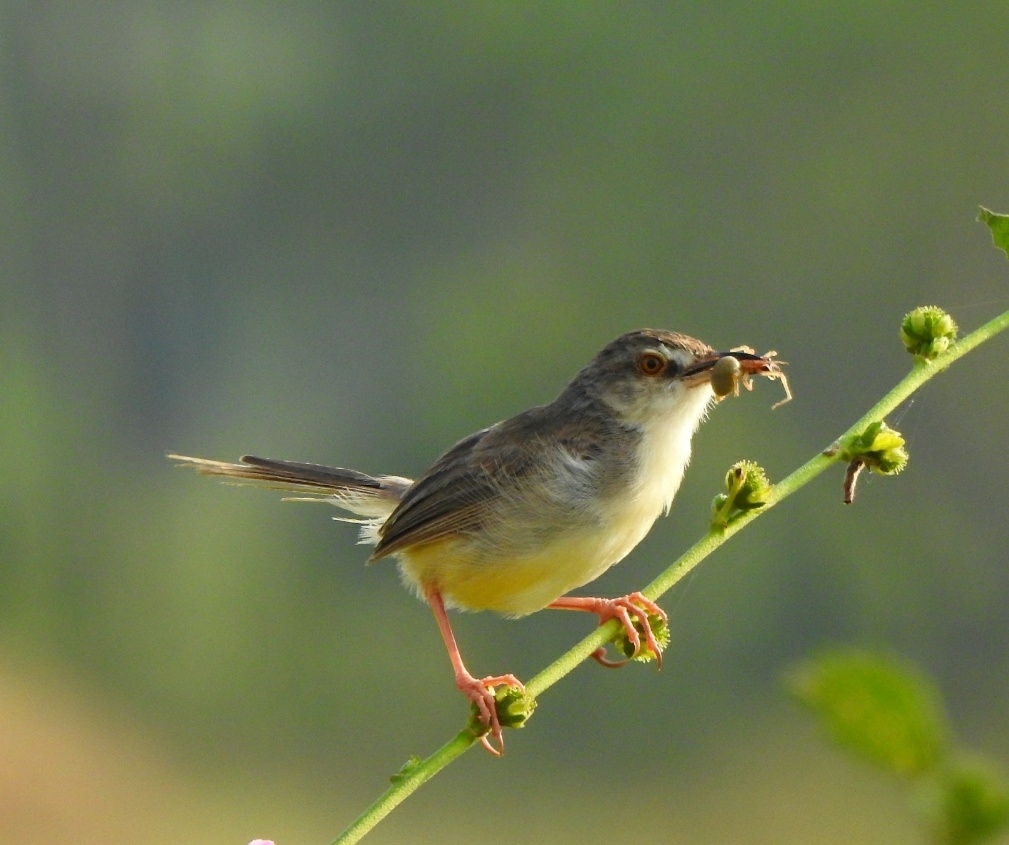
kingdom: Animalia
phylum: Chordata
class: Aves
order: Passeriformes
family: Cisticolidae
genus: Prinia
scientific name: Prinia inornata
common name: Plain prinia
